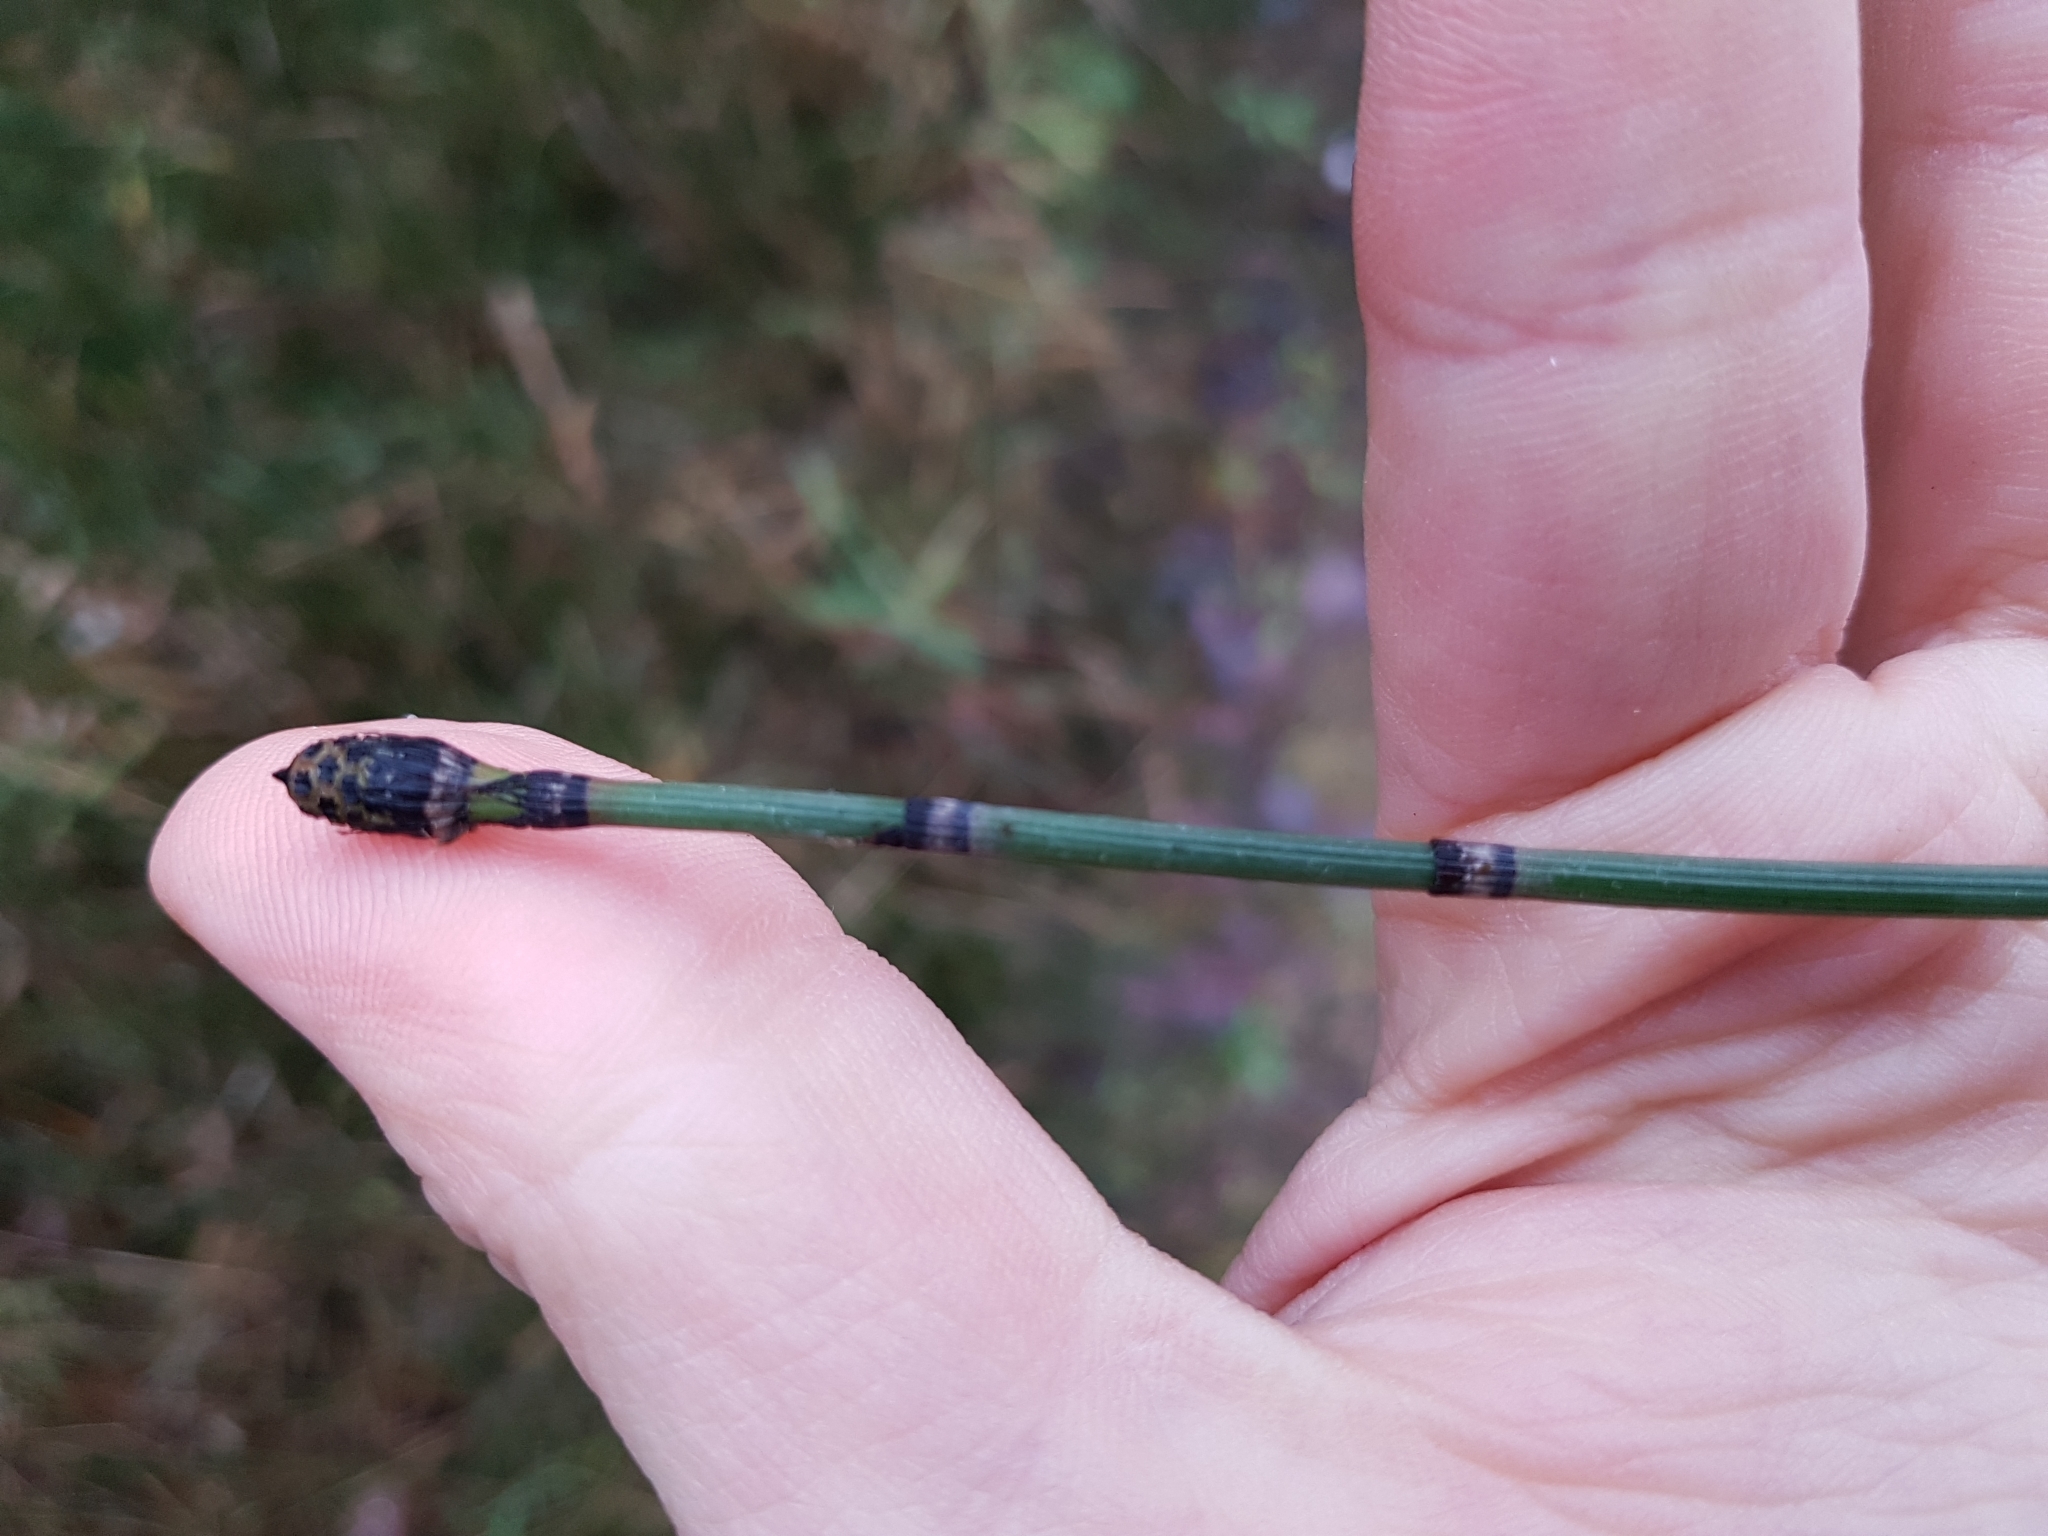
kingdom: Plantae
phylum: Tracheophyta
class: Polypodiopsida
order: Equisetales
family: Equisetaceae
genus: Equisetum
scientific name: Equisetum hyemale
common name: Rough horsetail
